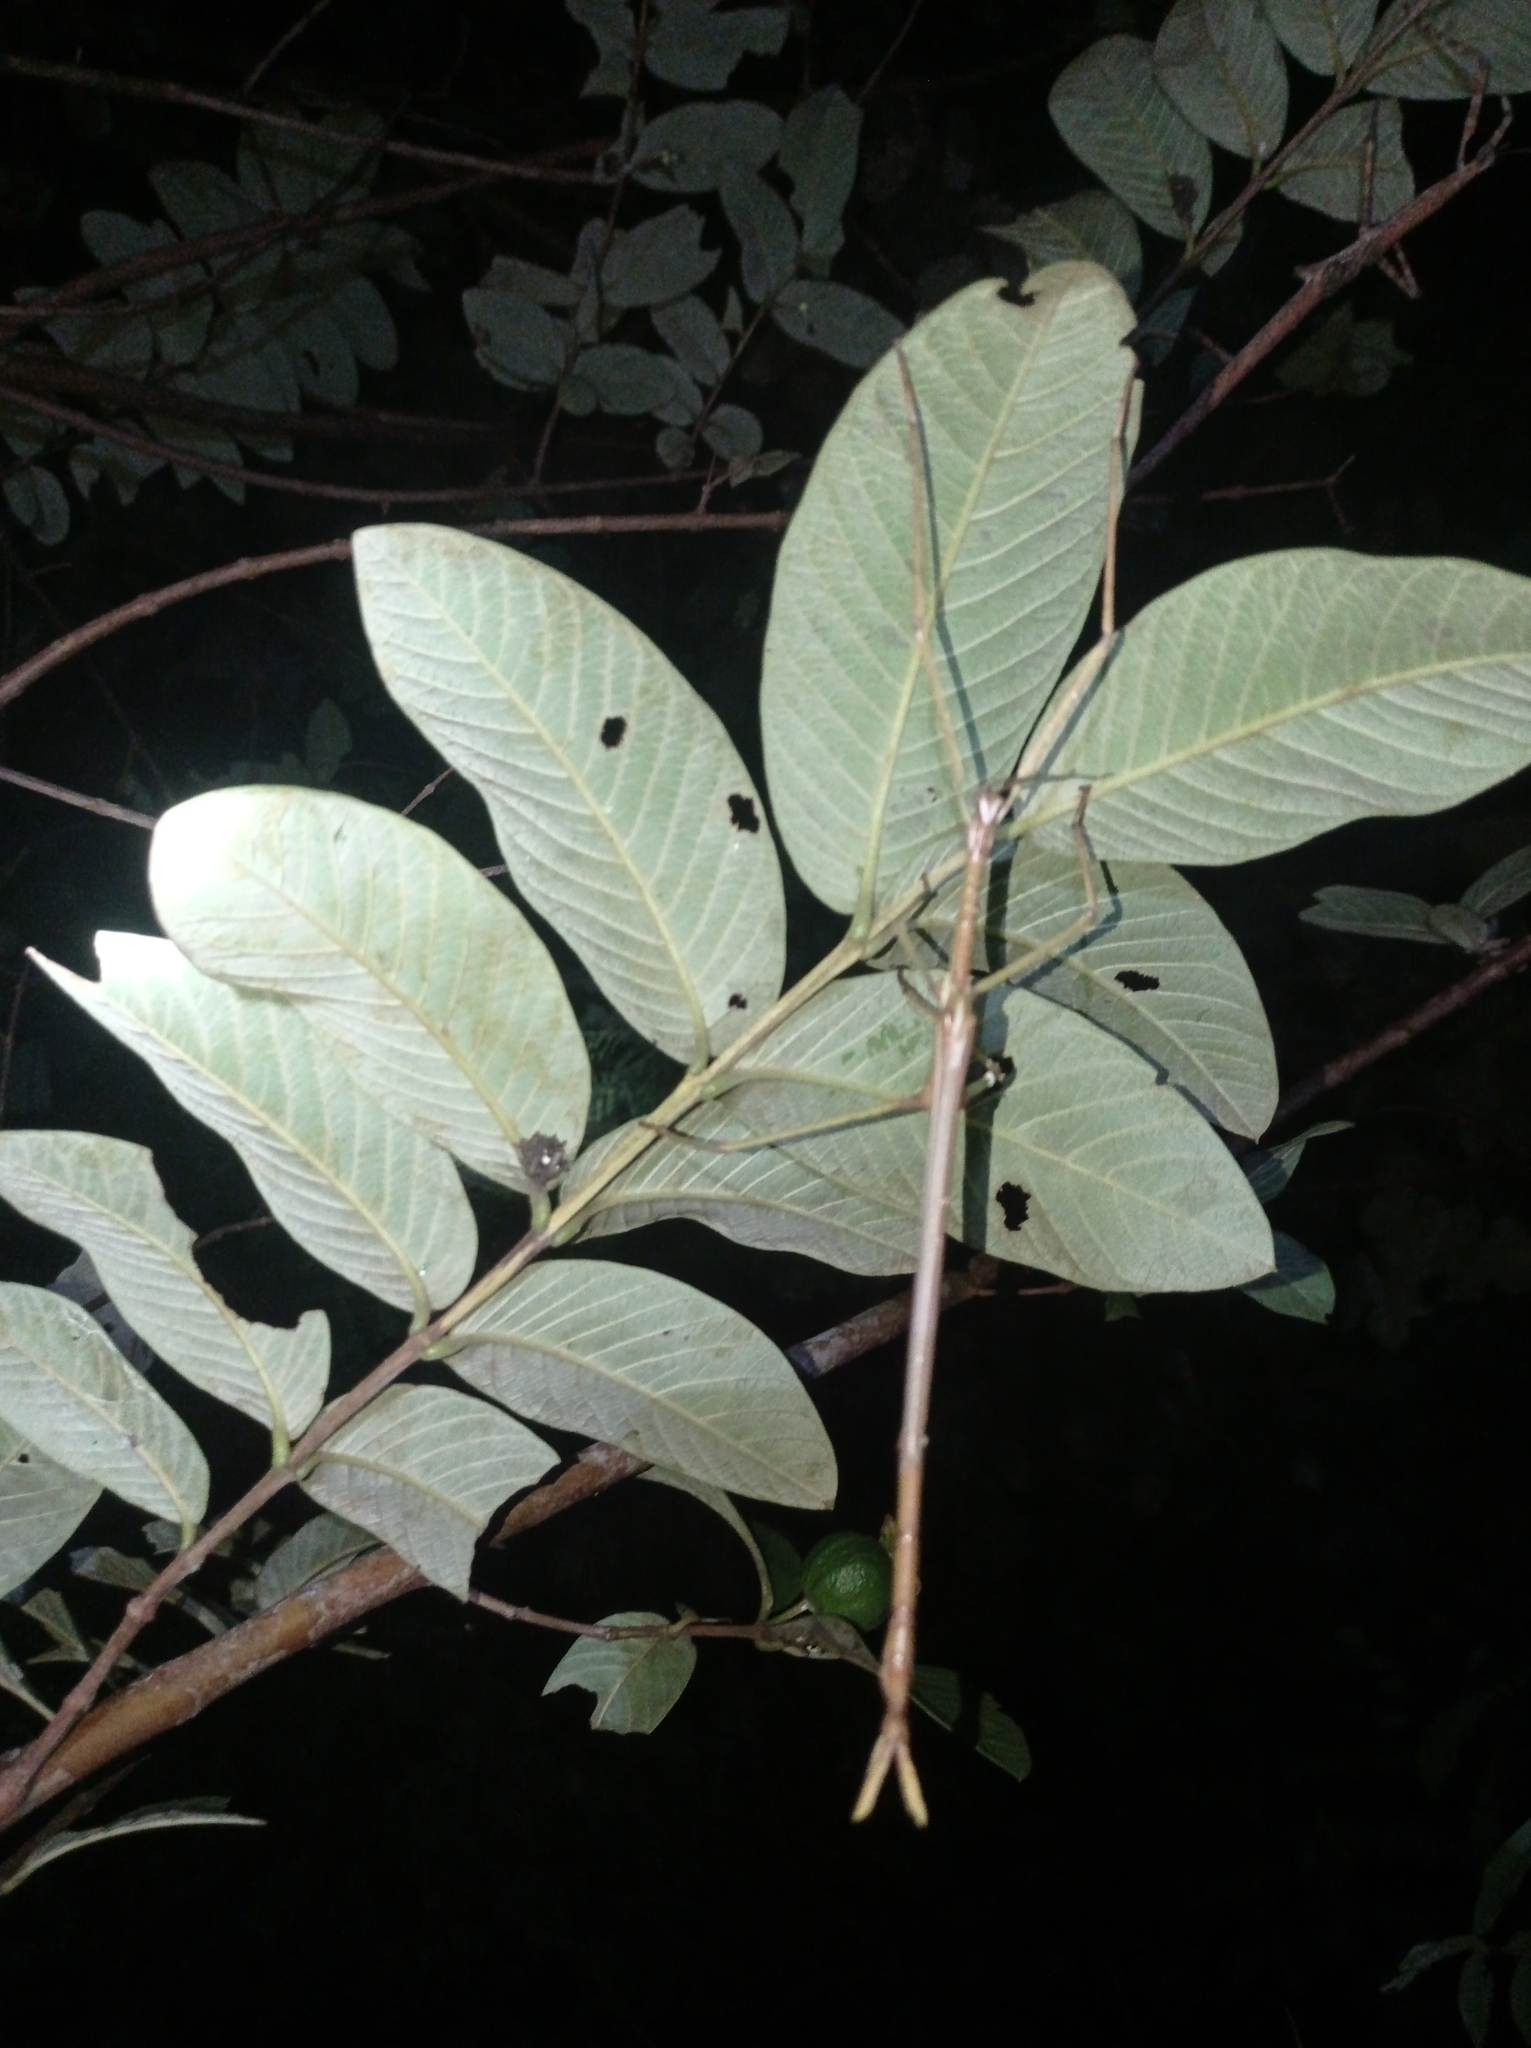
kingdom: Animalia
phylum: Arthropoda
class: Insecta
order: Phasmida
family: Phasmatidae
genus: Eurycnema
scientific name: Eurycnema versirubra
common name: Red-winged green giant stick-insect
